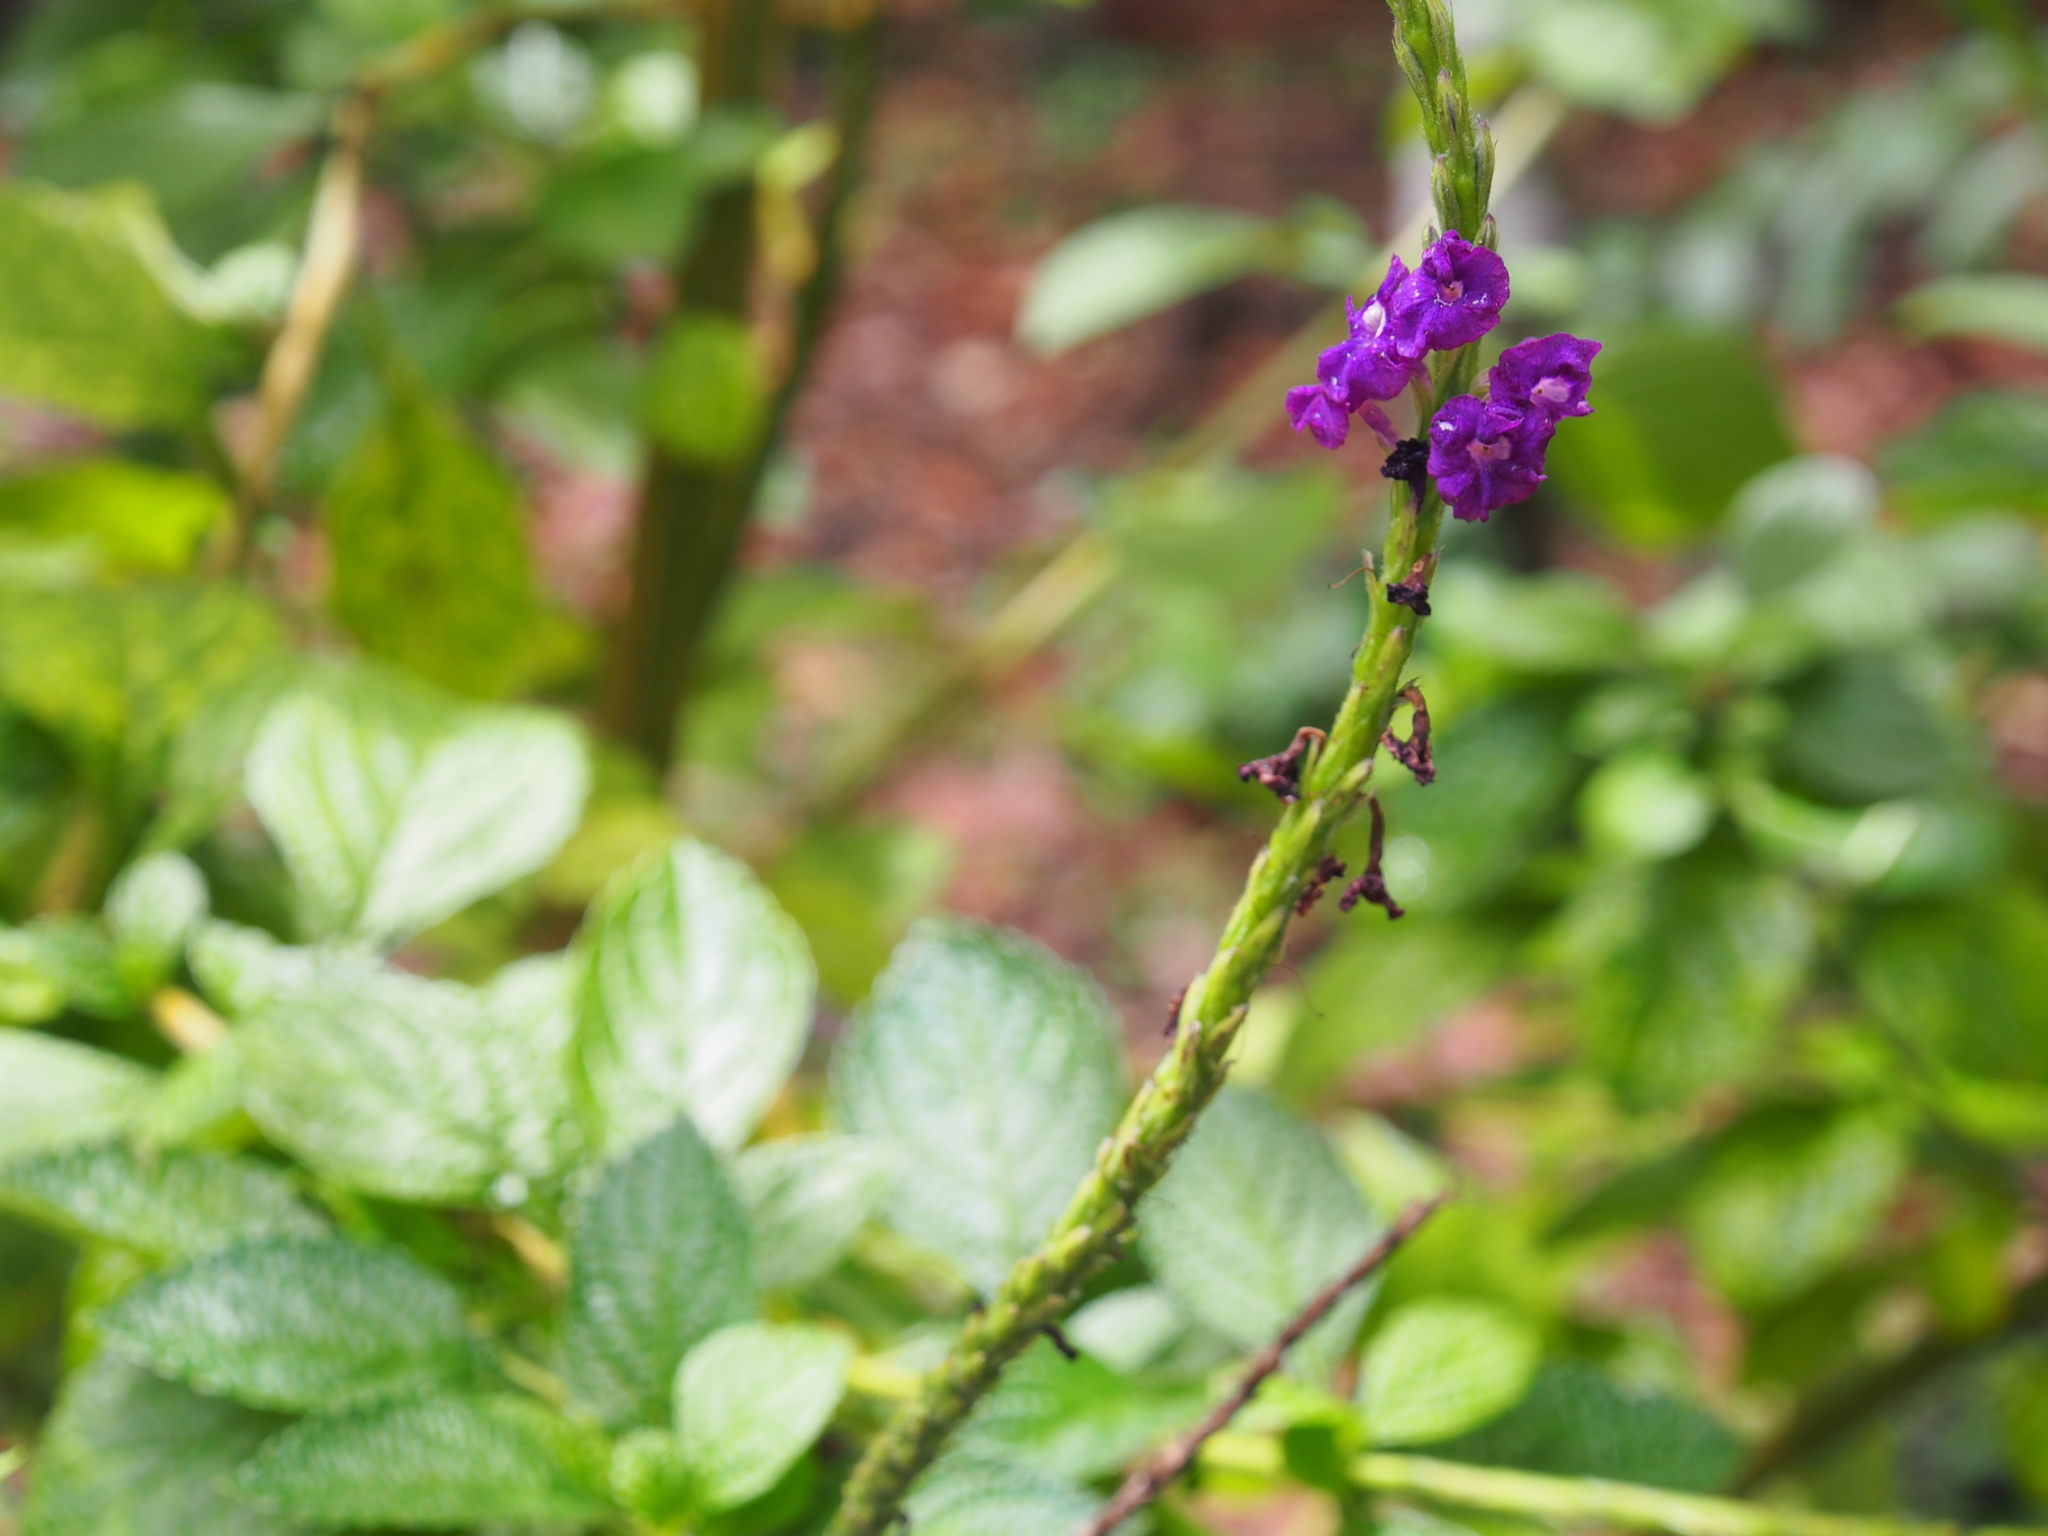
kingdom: Plantae
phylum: Tracheophyta
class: Magnoliopsida
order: Lamiales
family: Verbenaceae
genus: Stachytarpheta
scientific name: Stachytarpheta jamaicensis
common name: Light-blue snakeweed
